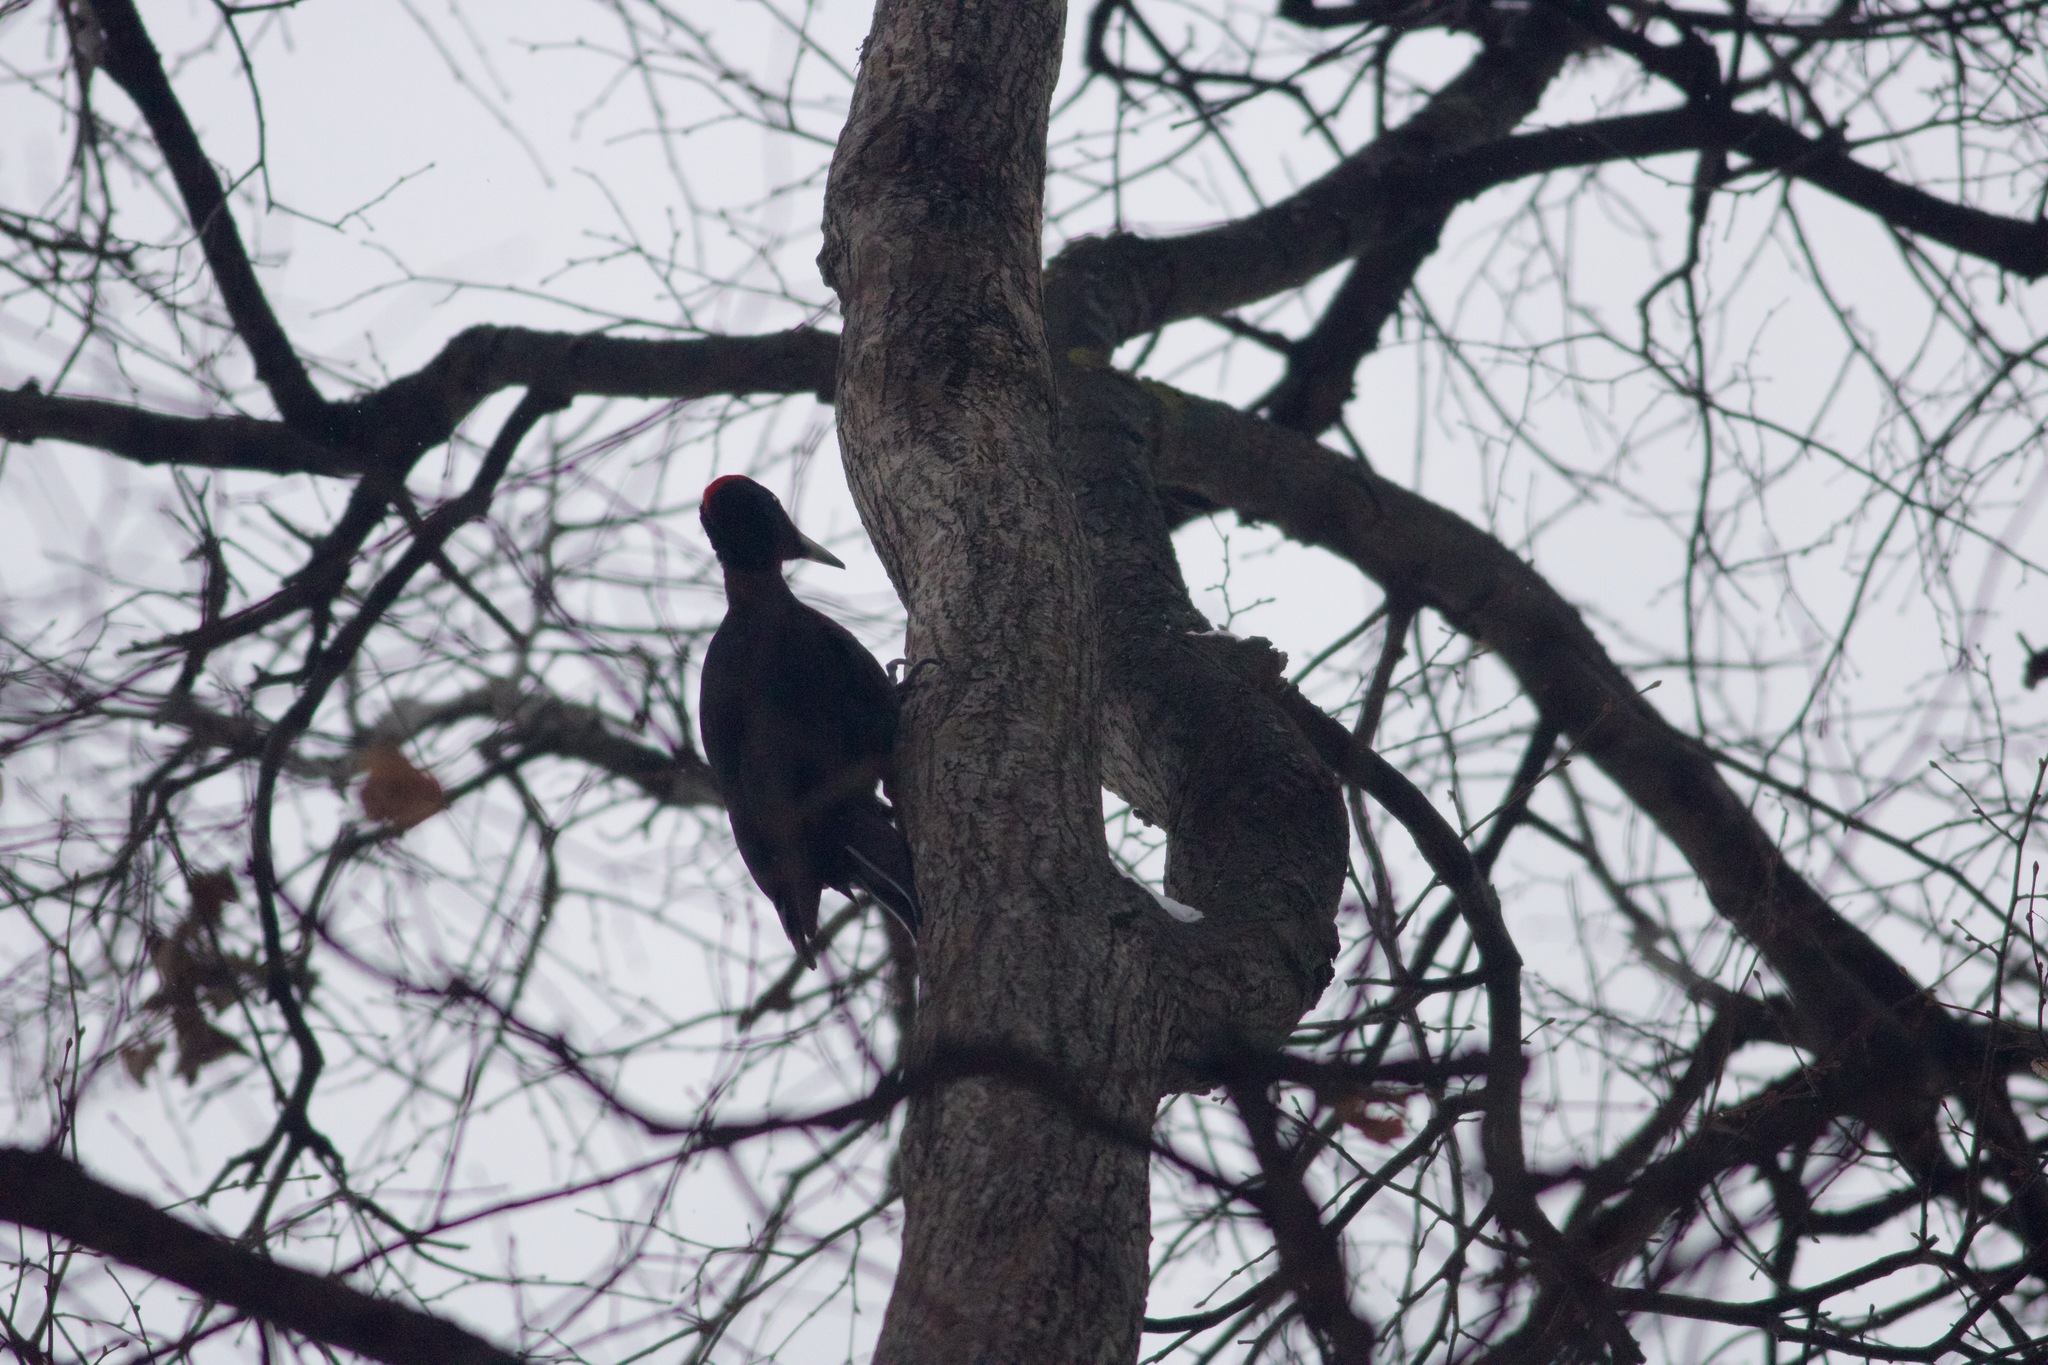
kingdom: Animalia
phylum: Chordata
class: Aves
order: Piciformes
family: Picidae
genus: Dryocopus
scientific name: Dryocopus martius
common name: Black woodpecker
